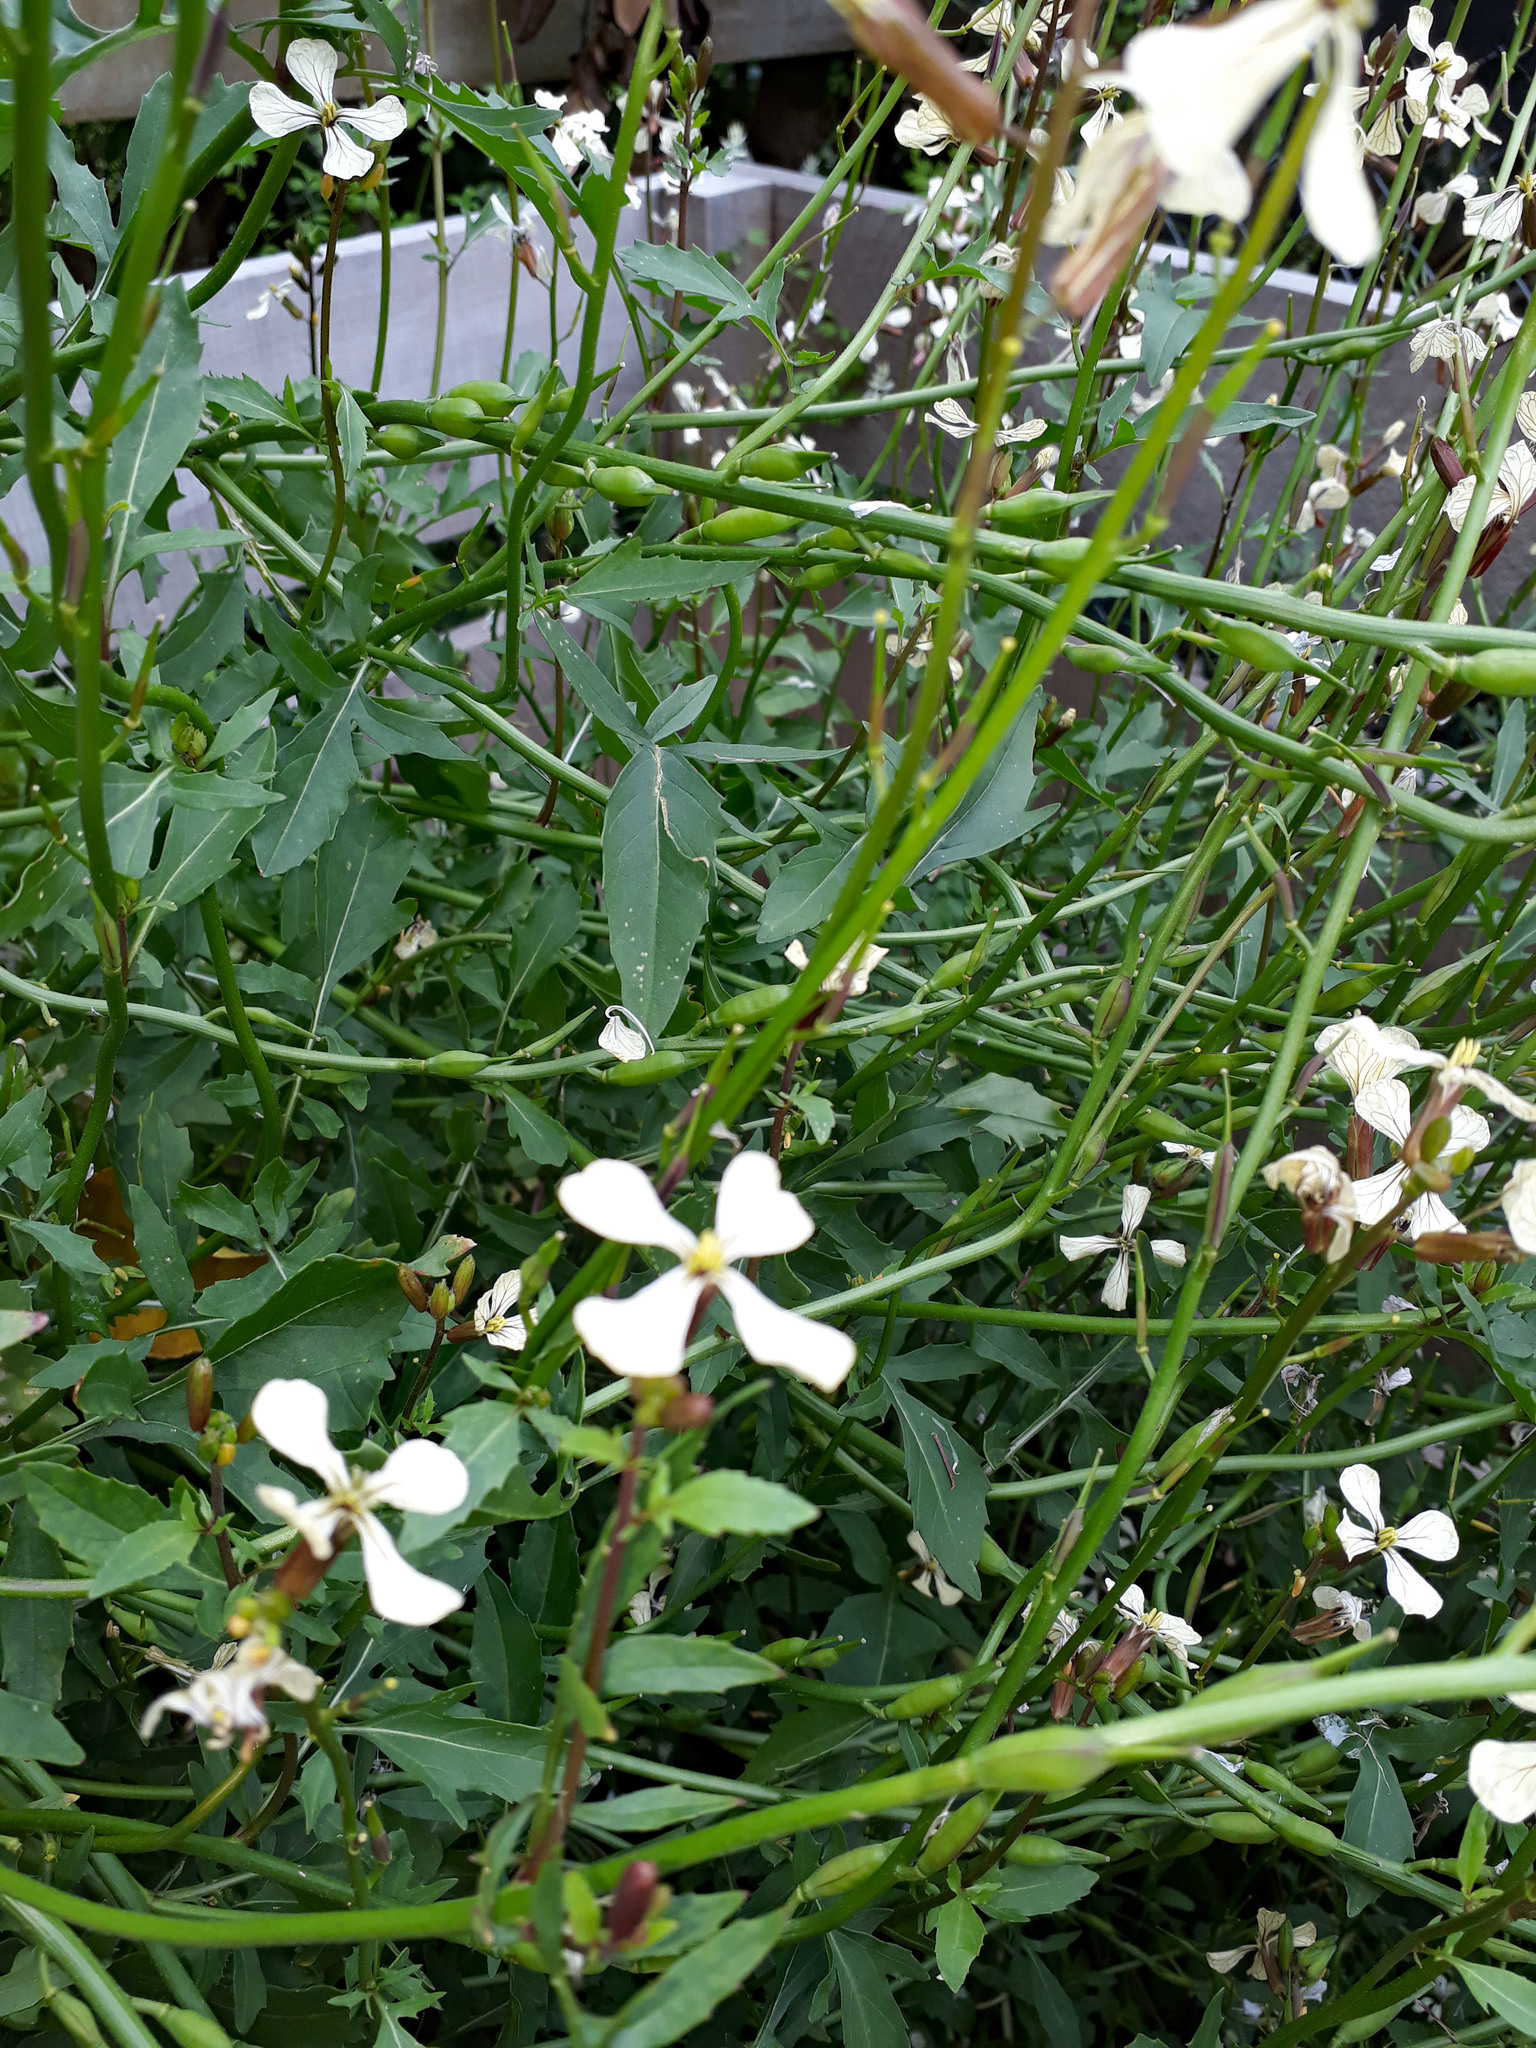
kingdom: Plantae
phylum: Tracheophyta
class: Magnoliopsida
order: Brassicales
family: Brassicaceae
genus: Eruca
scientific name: Eruca vesicaria
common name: Garden rocket
